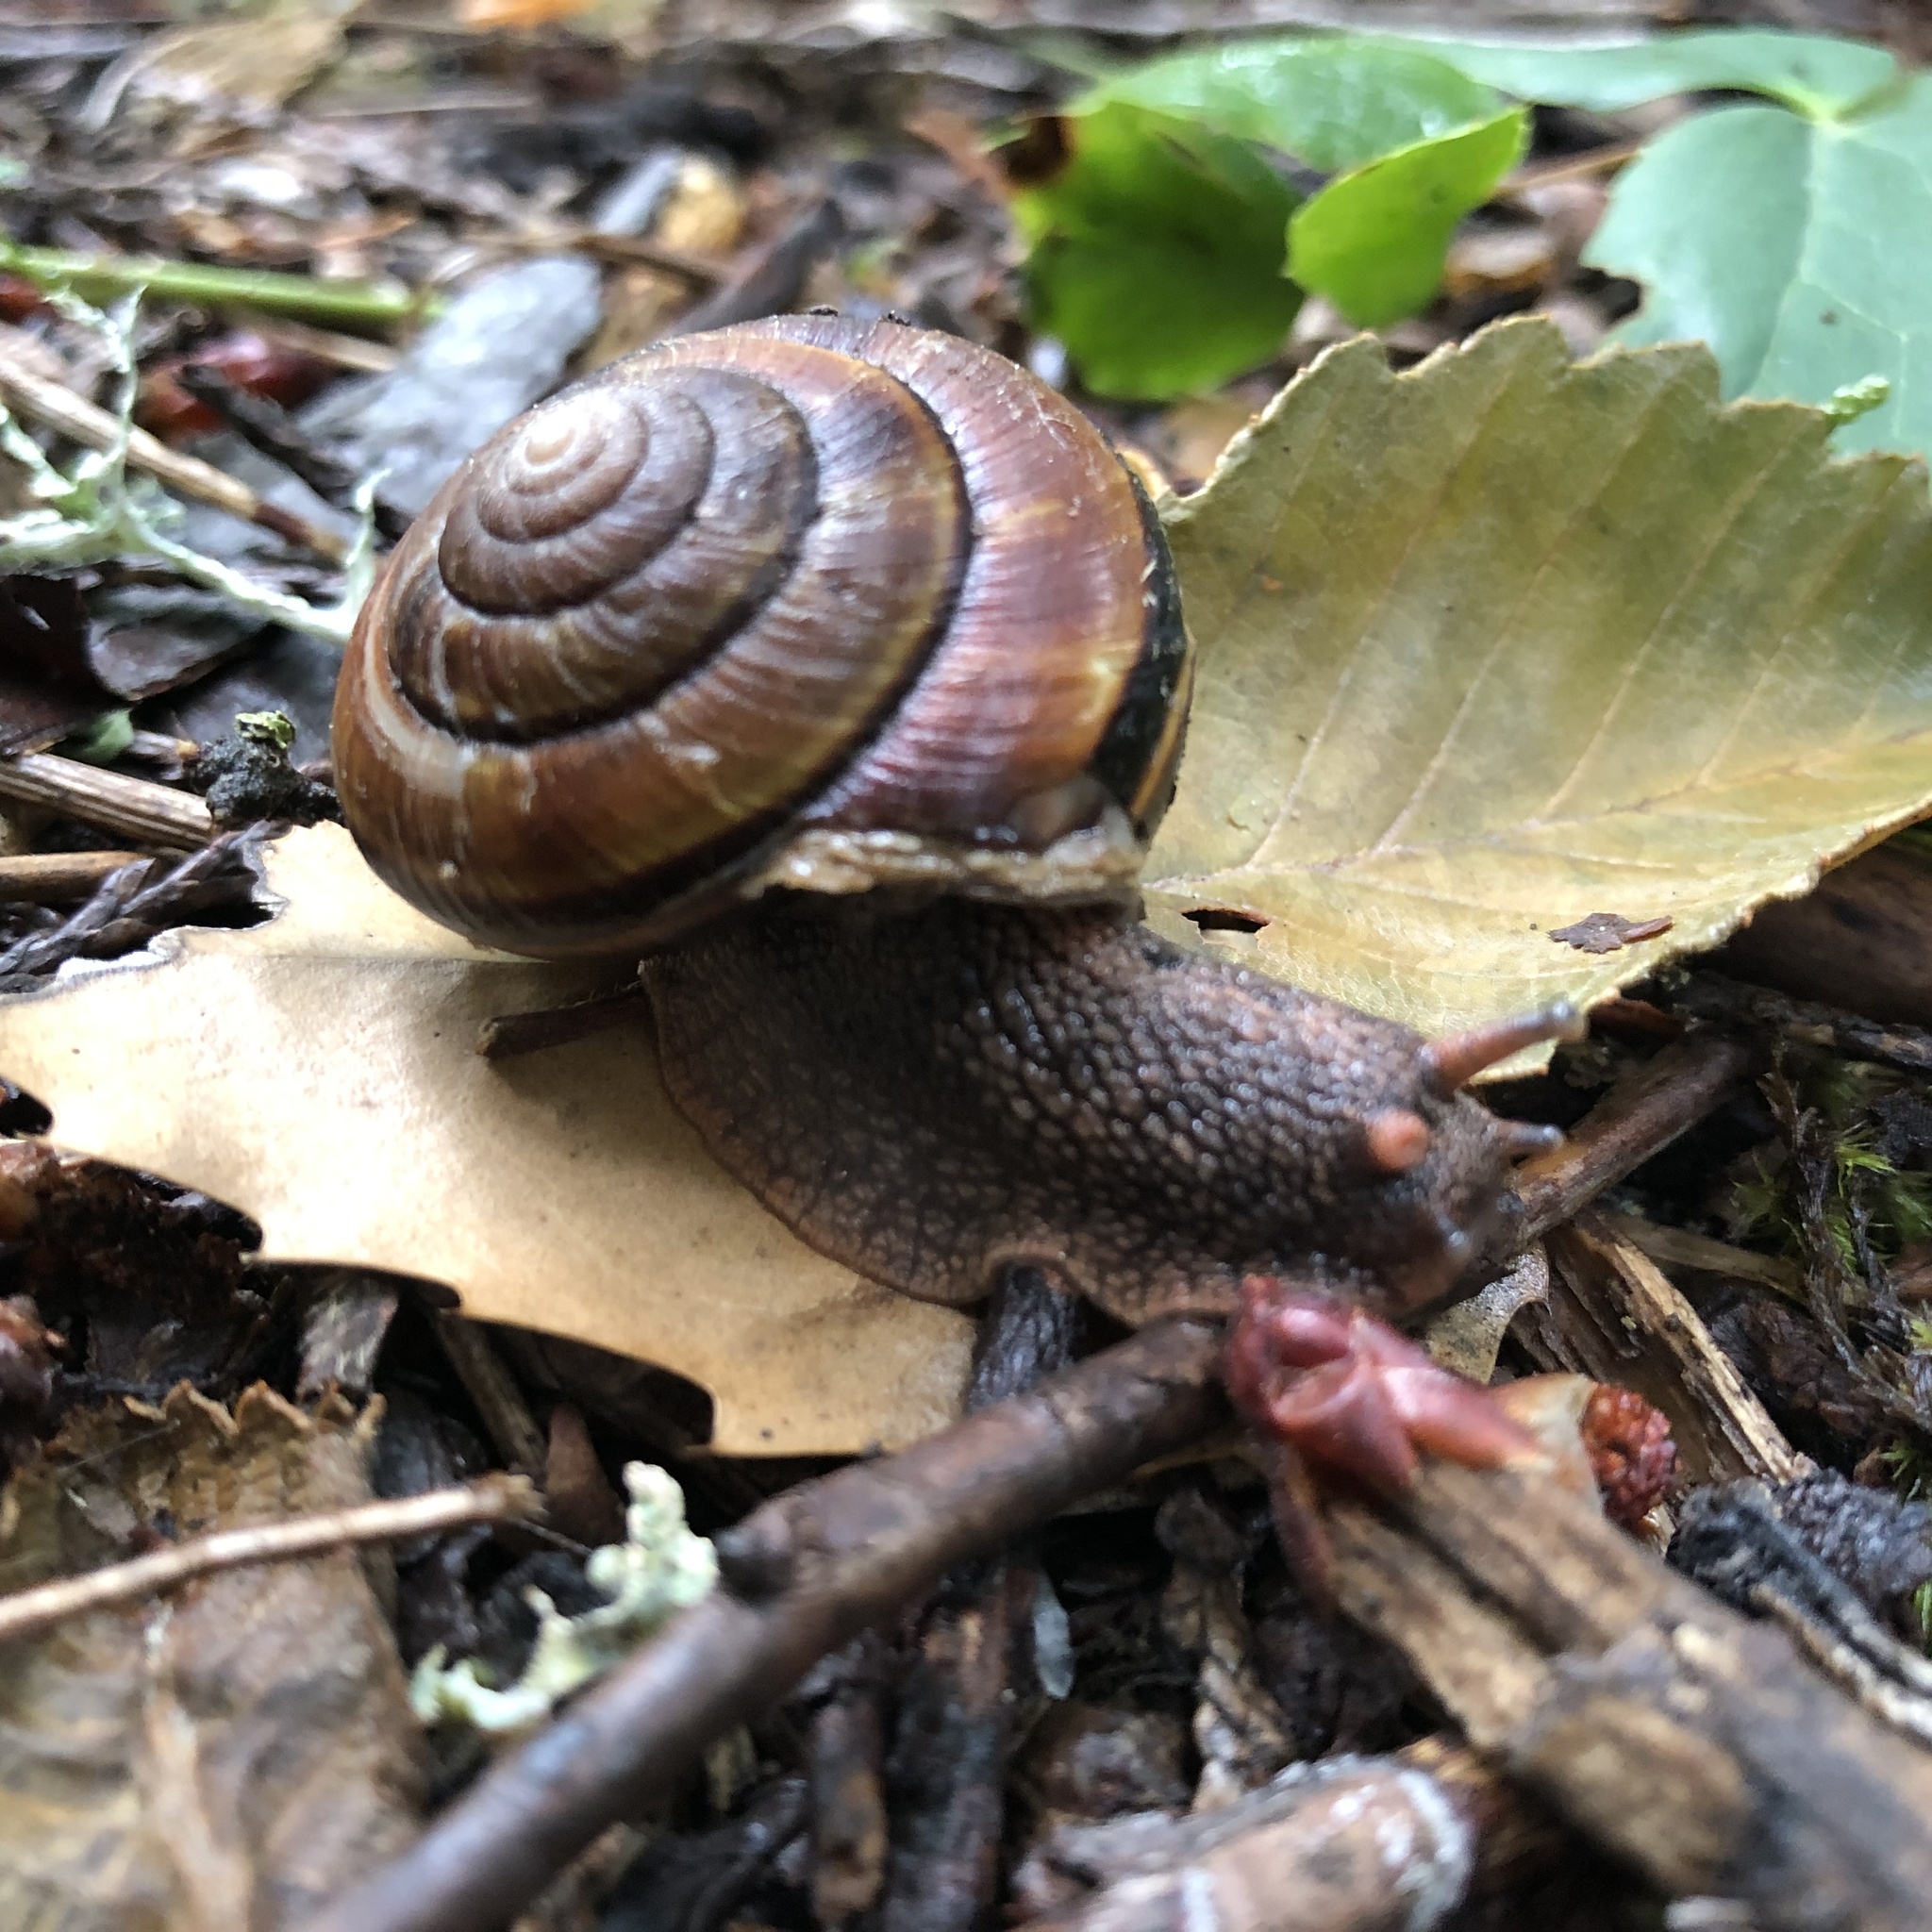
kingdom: Animalia
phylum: Mollusca
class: Gastropoda
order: Stylommatophora
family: Xanthonychidae
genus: Monadenia
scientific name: Monadenia fidelis
